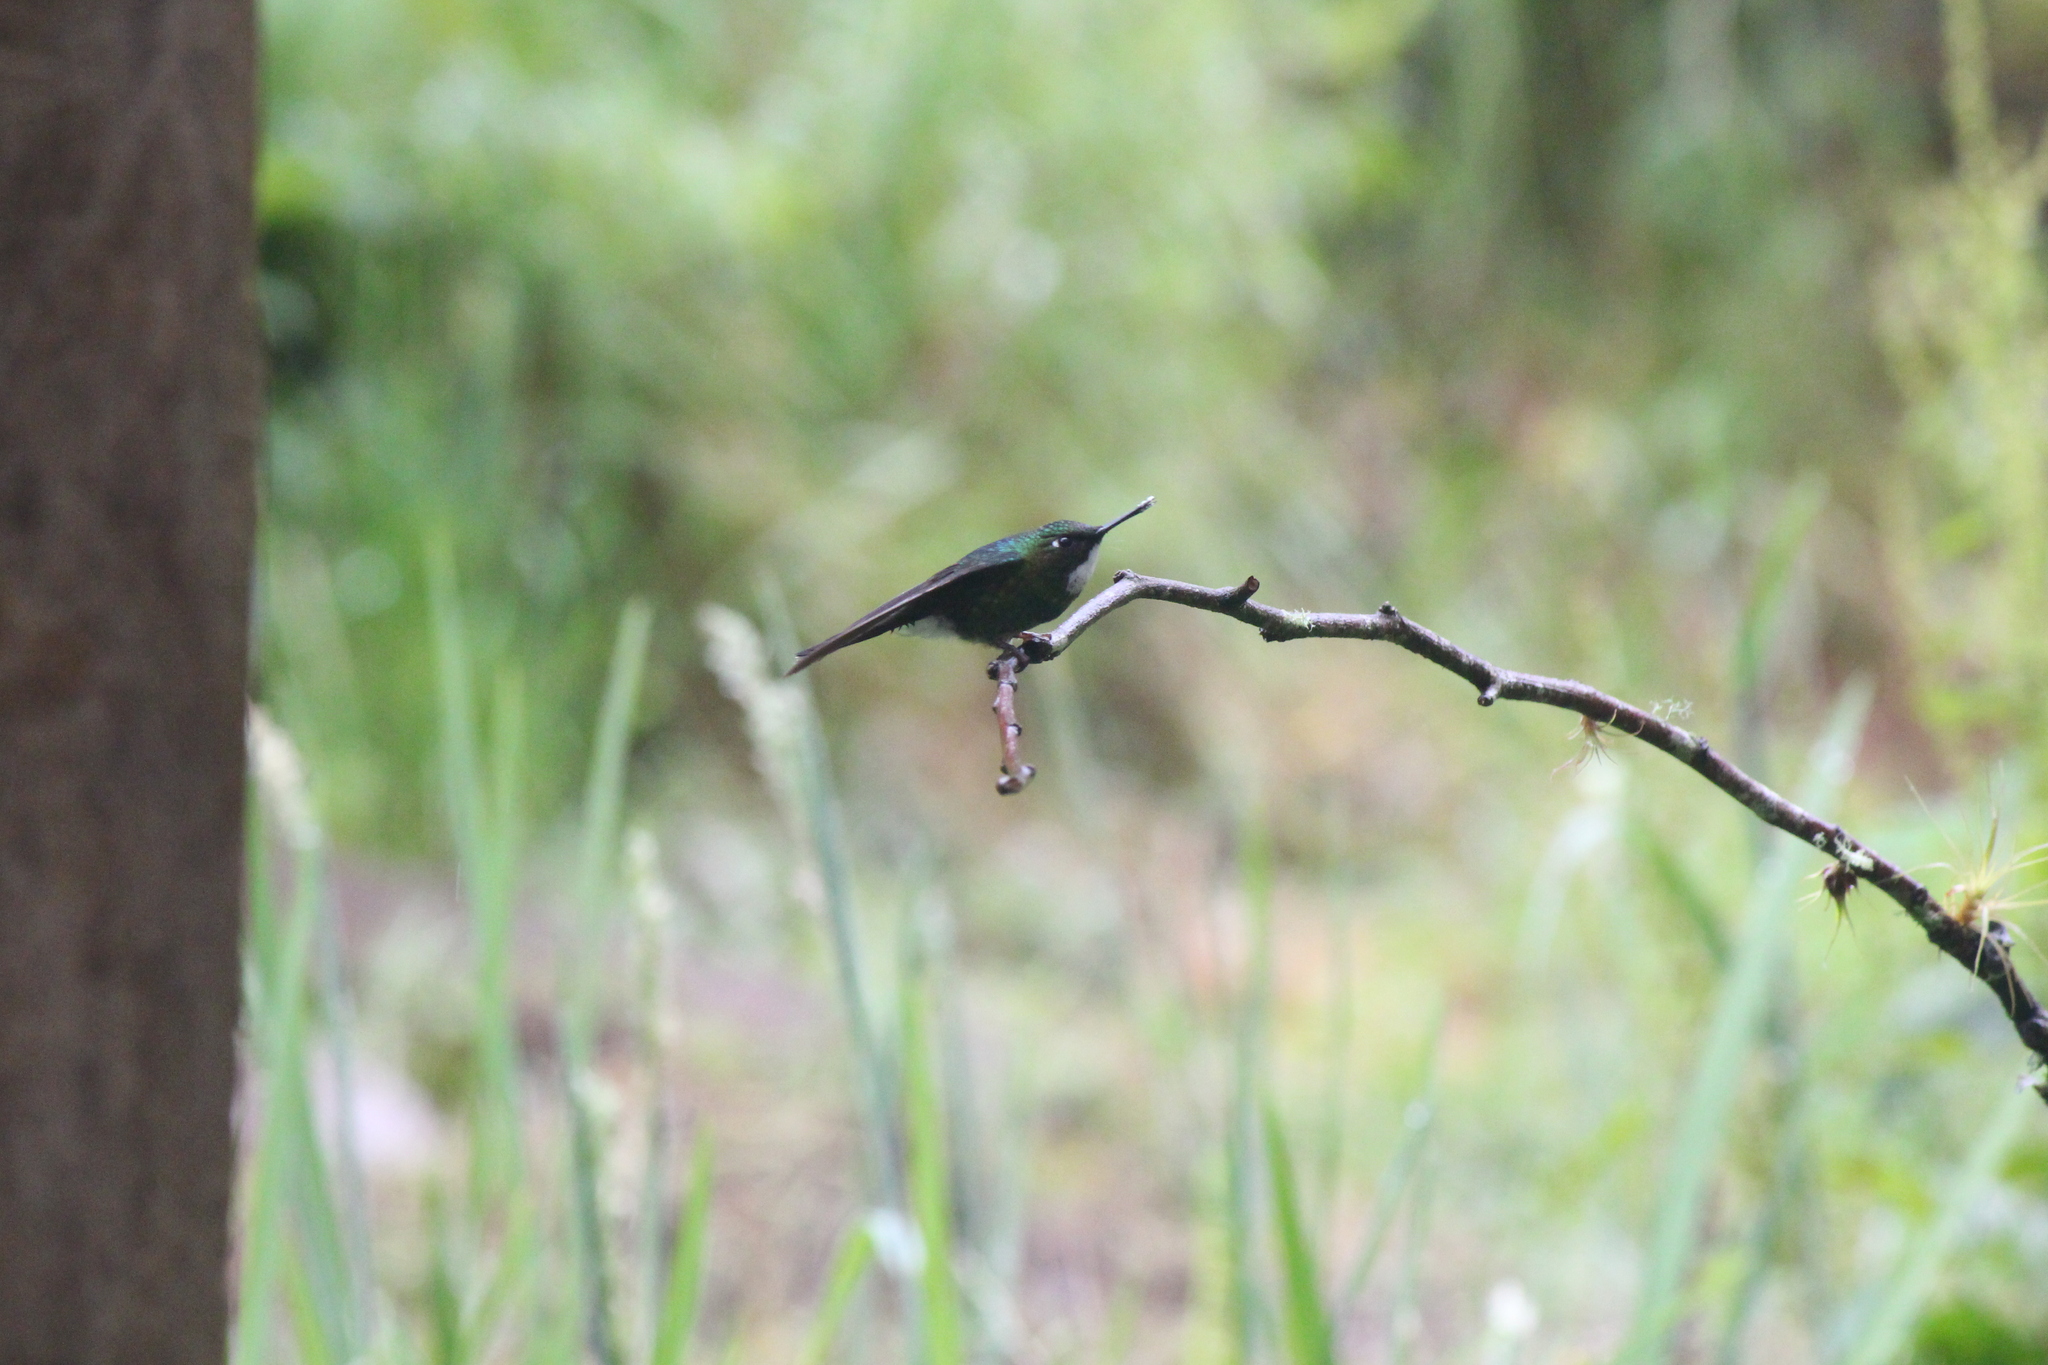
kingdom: Animalia
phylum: Chordata
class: Aves
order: Apodiformes
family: Trochilidae
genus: Heliangelus
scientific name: Heliangelus exortis
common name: Tourmaline sunangel
